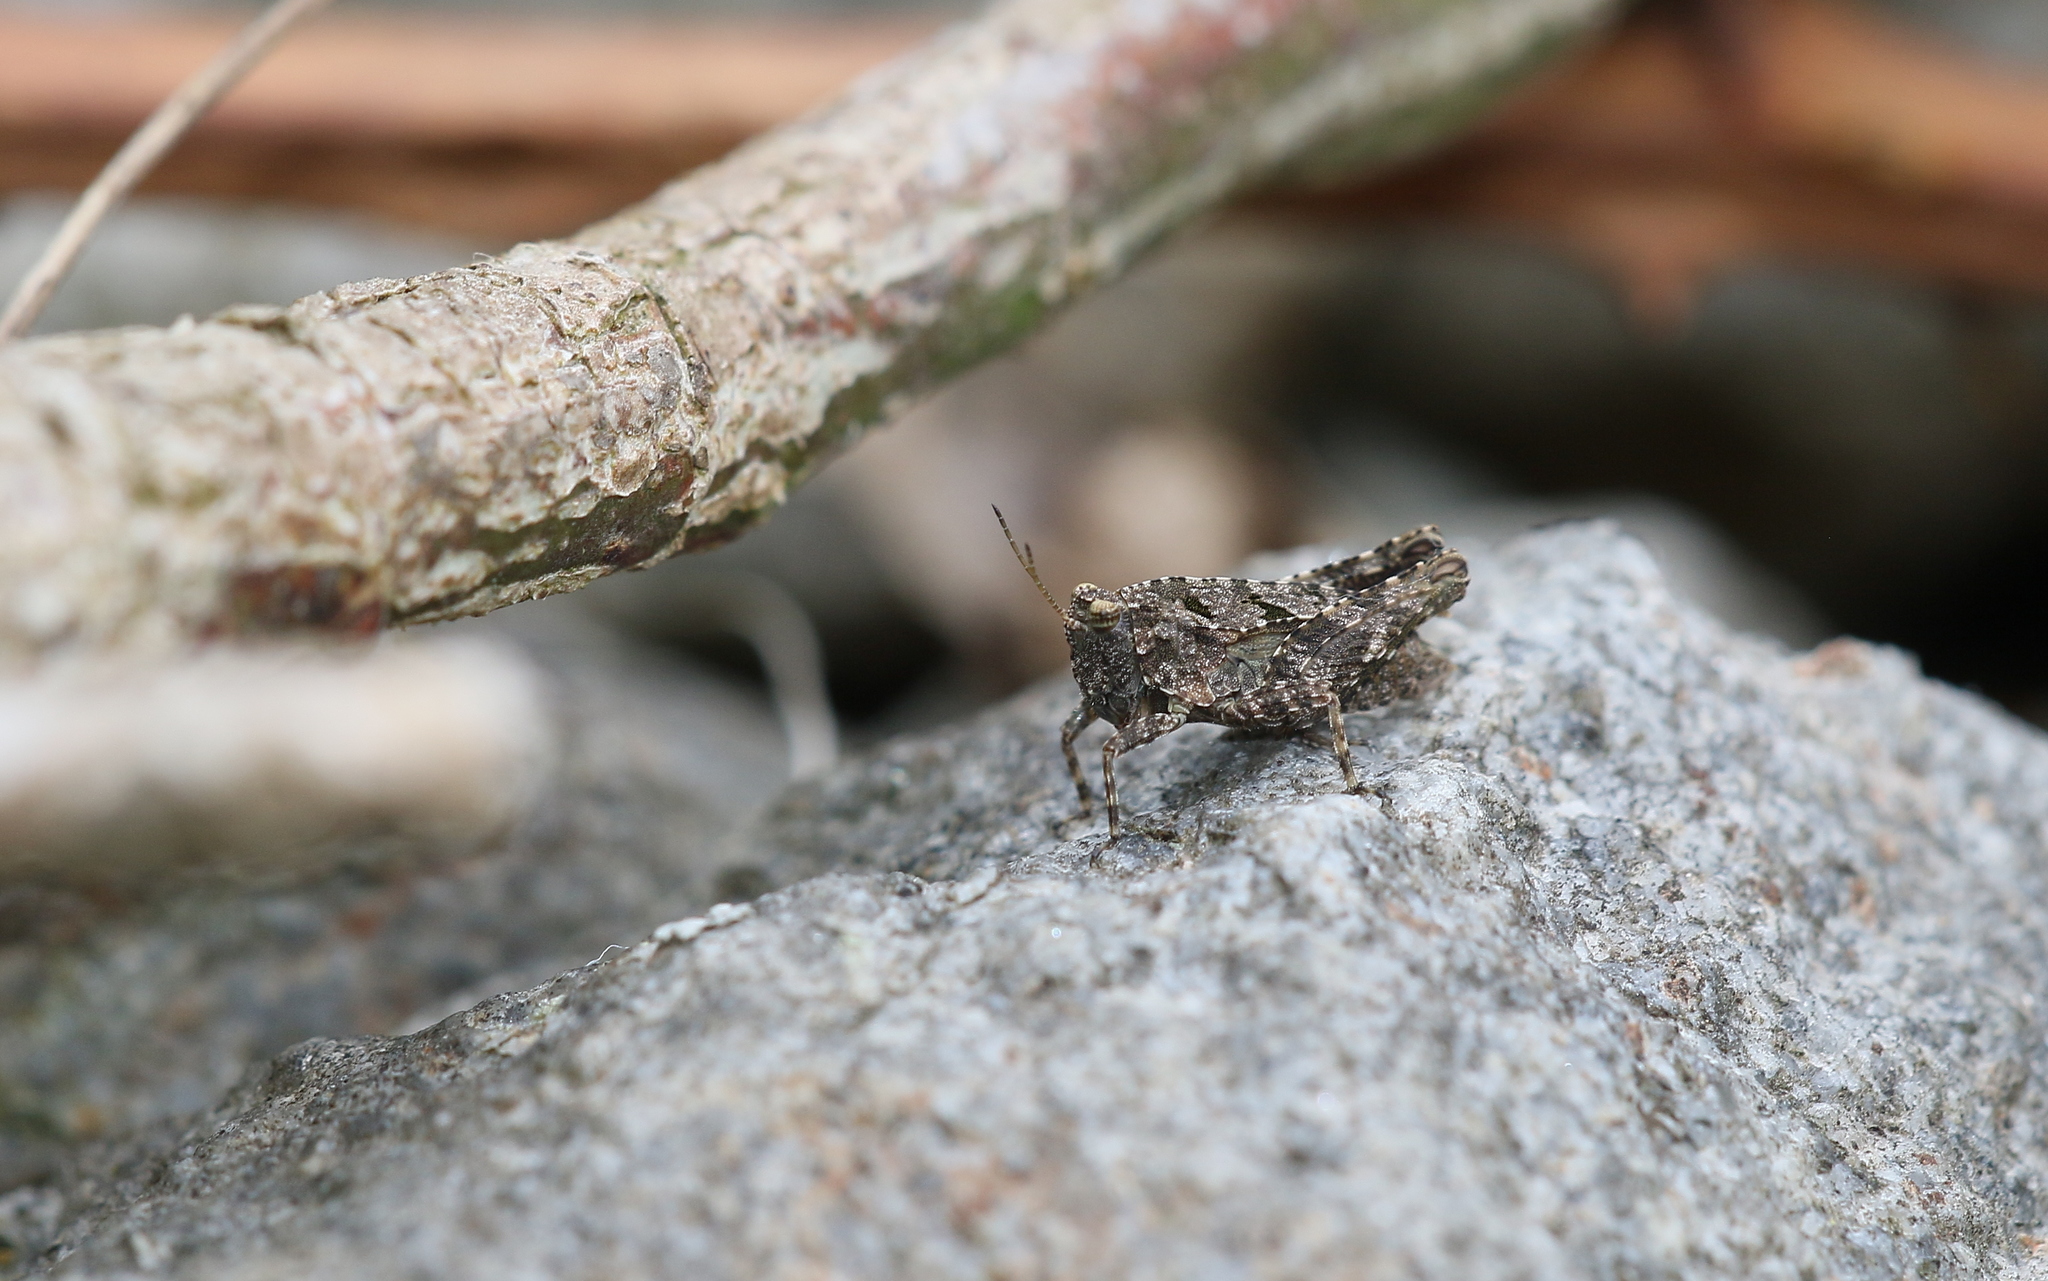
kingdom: Animalia
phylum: Arthropoda
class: Insecta
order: Orthoptera
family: Tetrigidae
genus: Tetrix
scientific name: Tetrix tenuicornis
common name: Long-horned groundhopper
